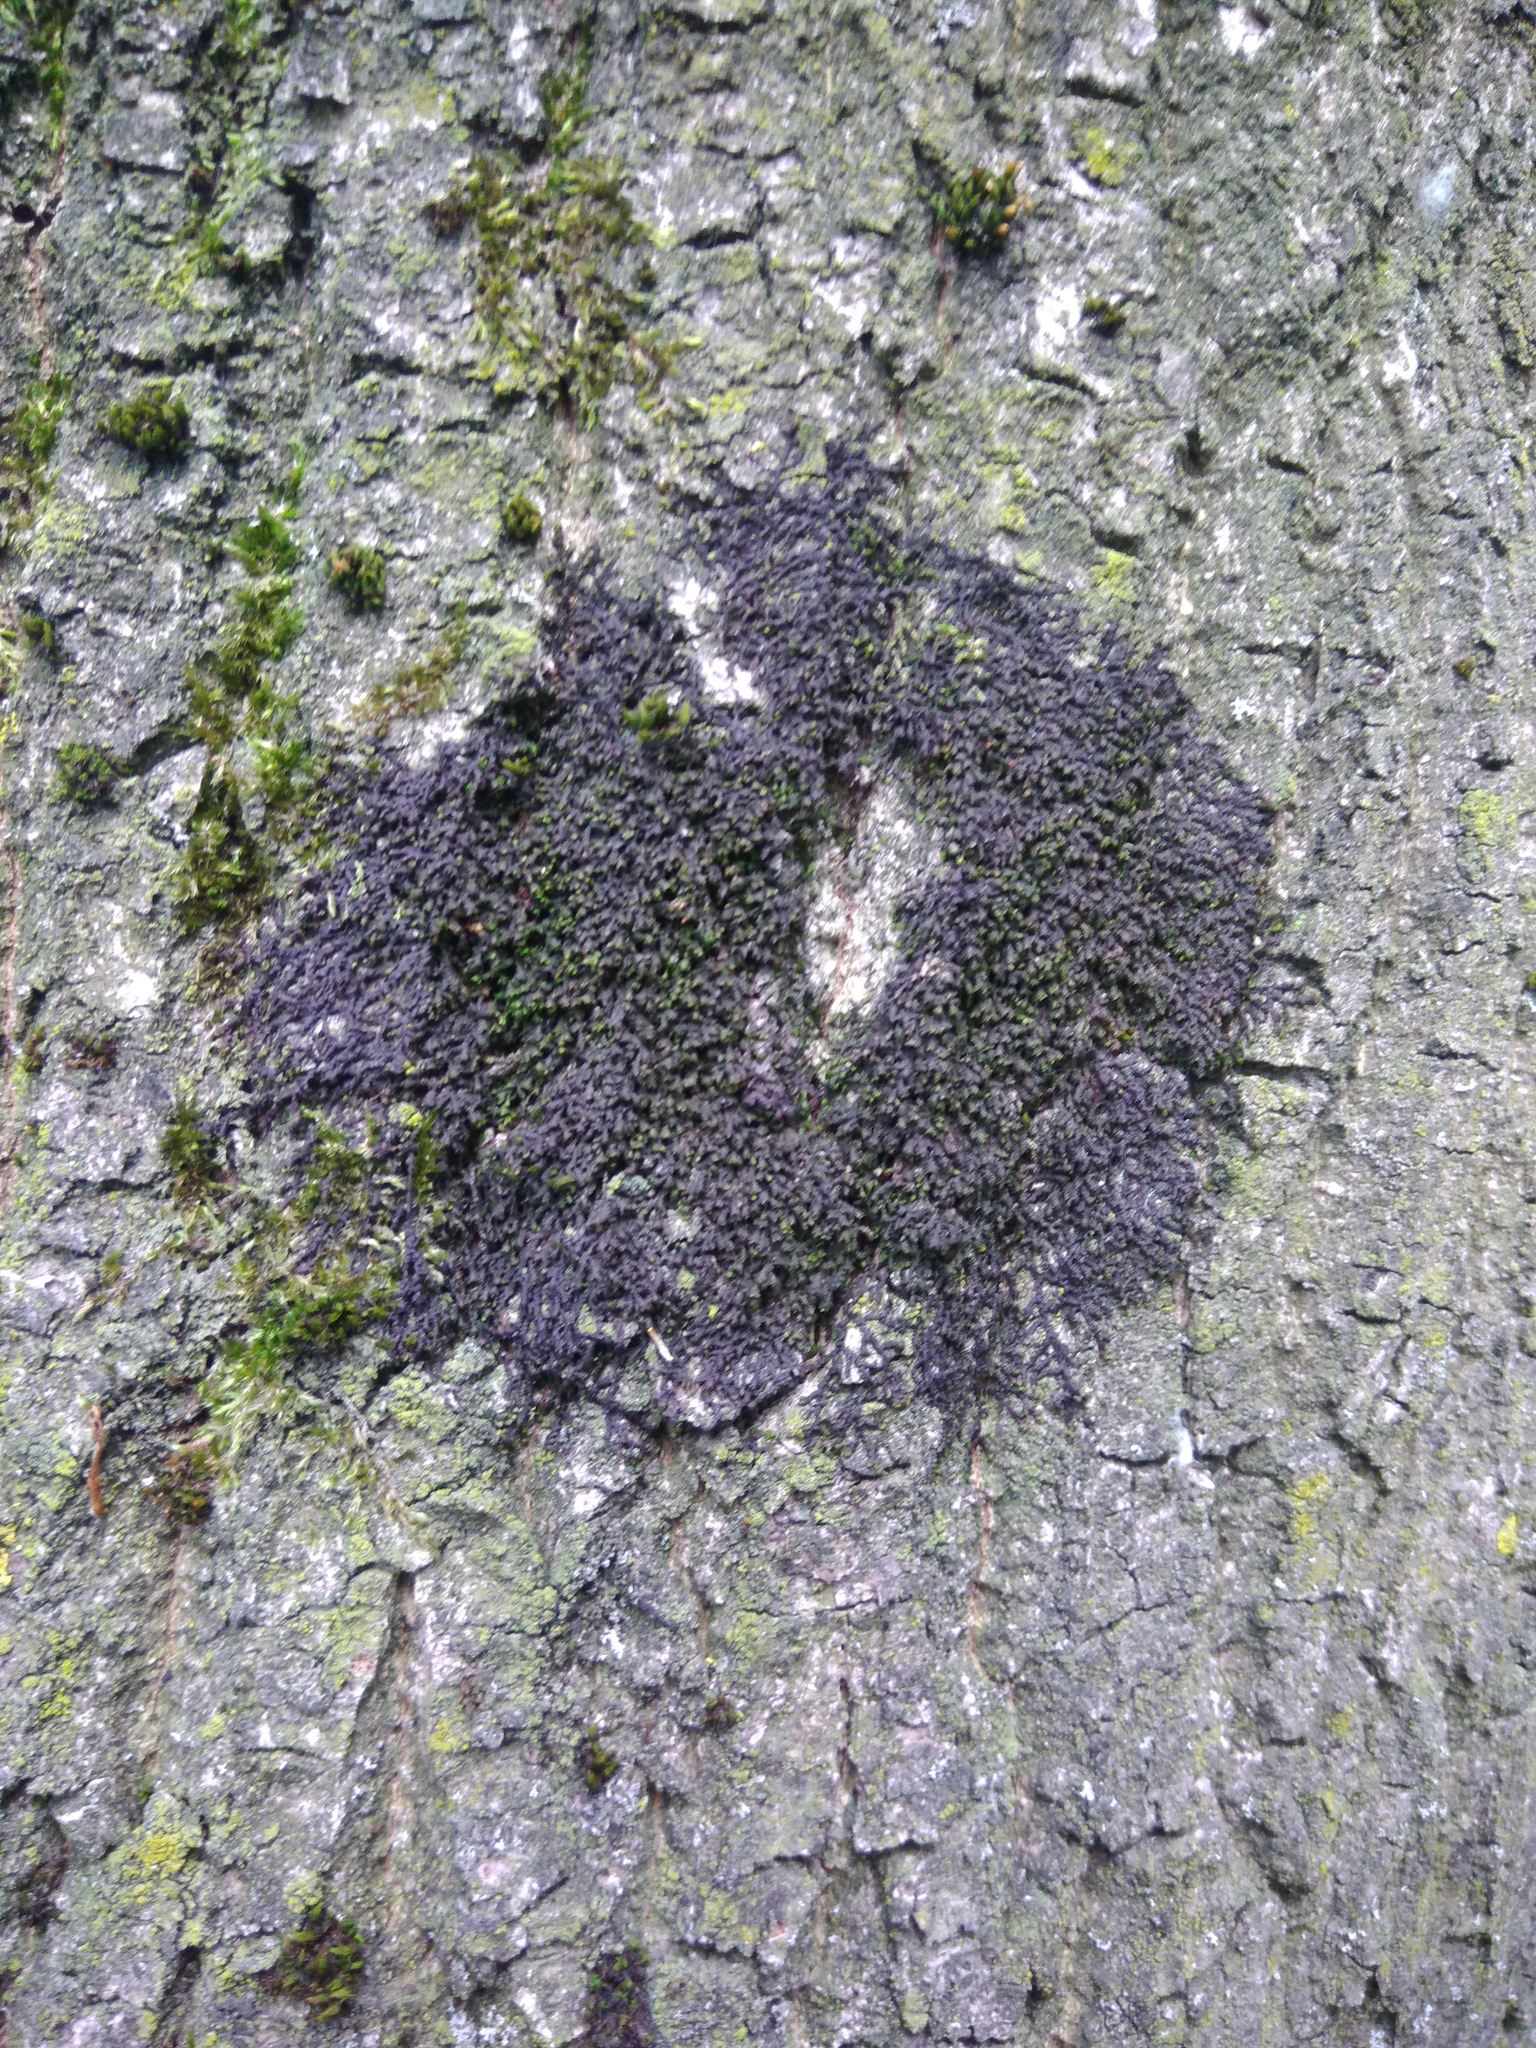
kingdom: Plantae
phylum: Marchantiophyta
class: Jungermanniopsida
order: Porellales
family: Frullaniaceae
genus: Frullania
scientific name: Frullania dilatata
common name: Dilated scalewort
